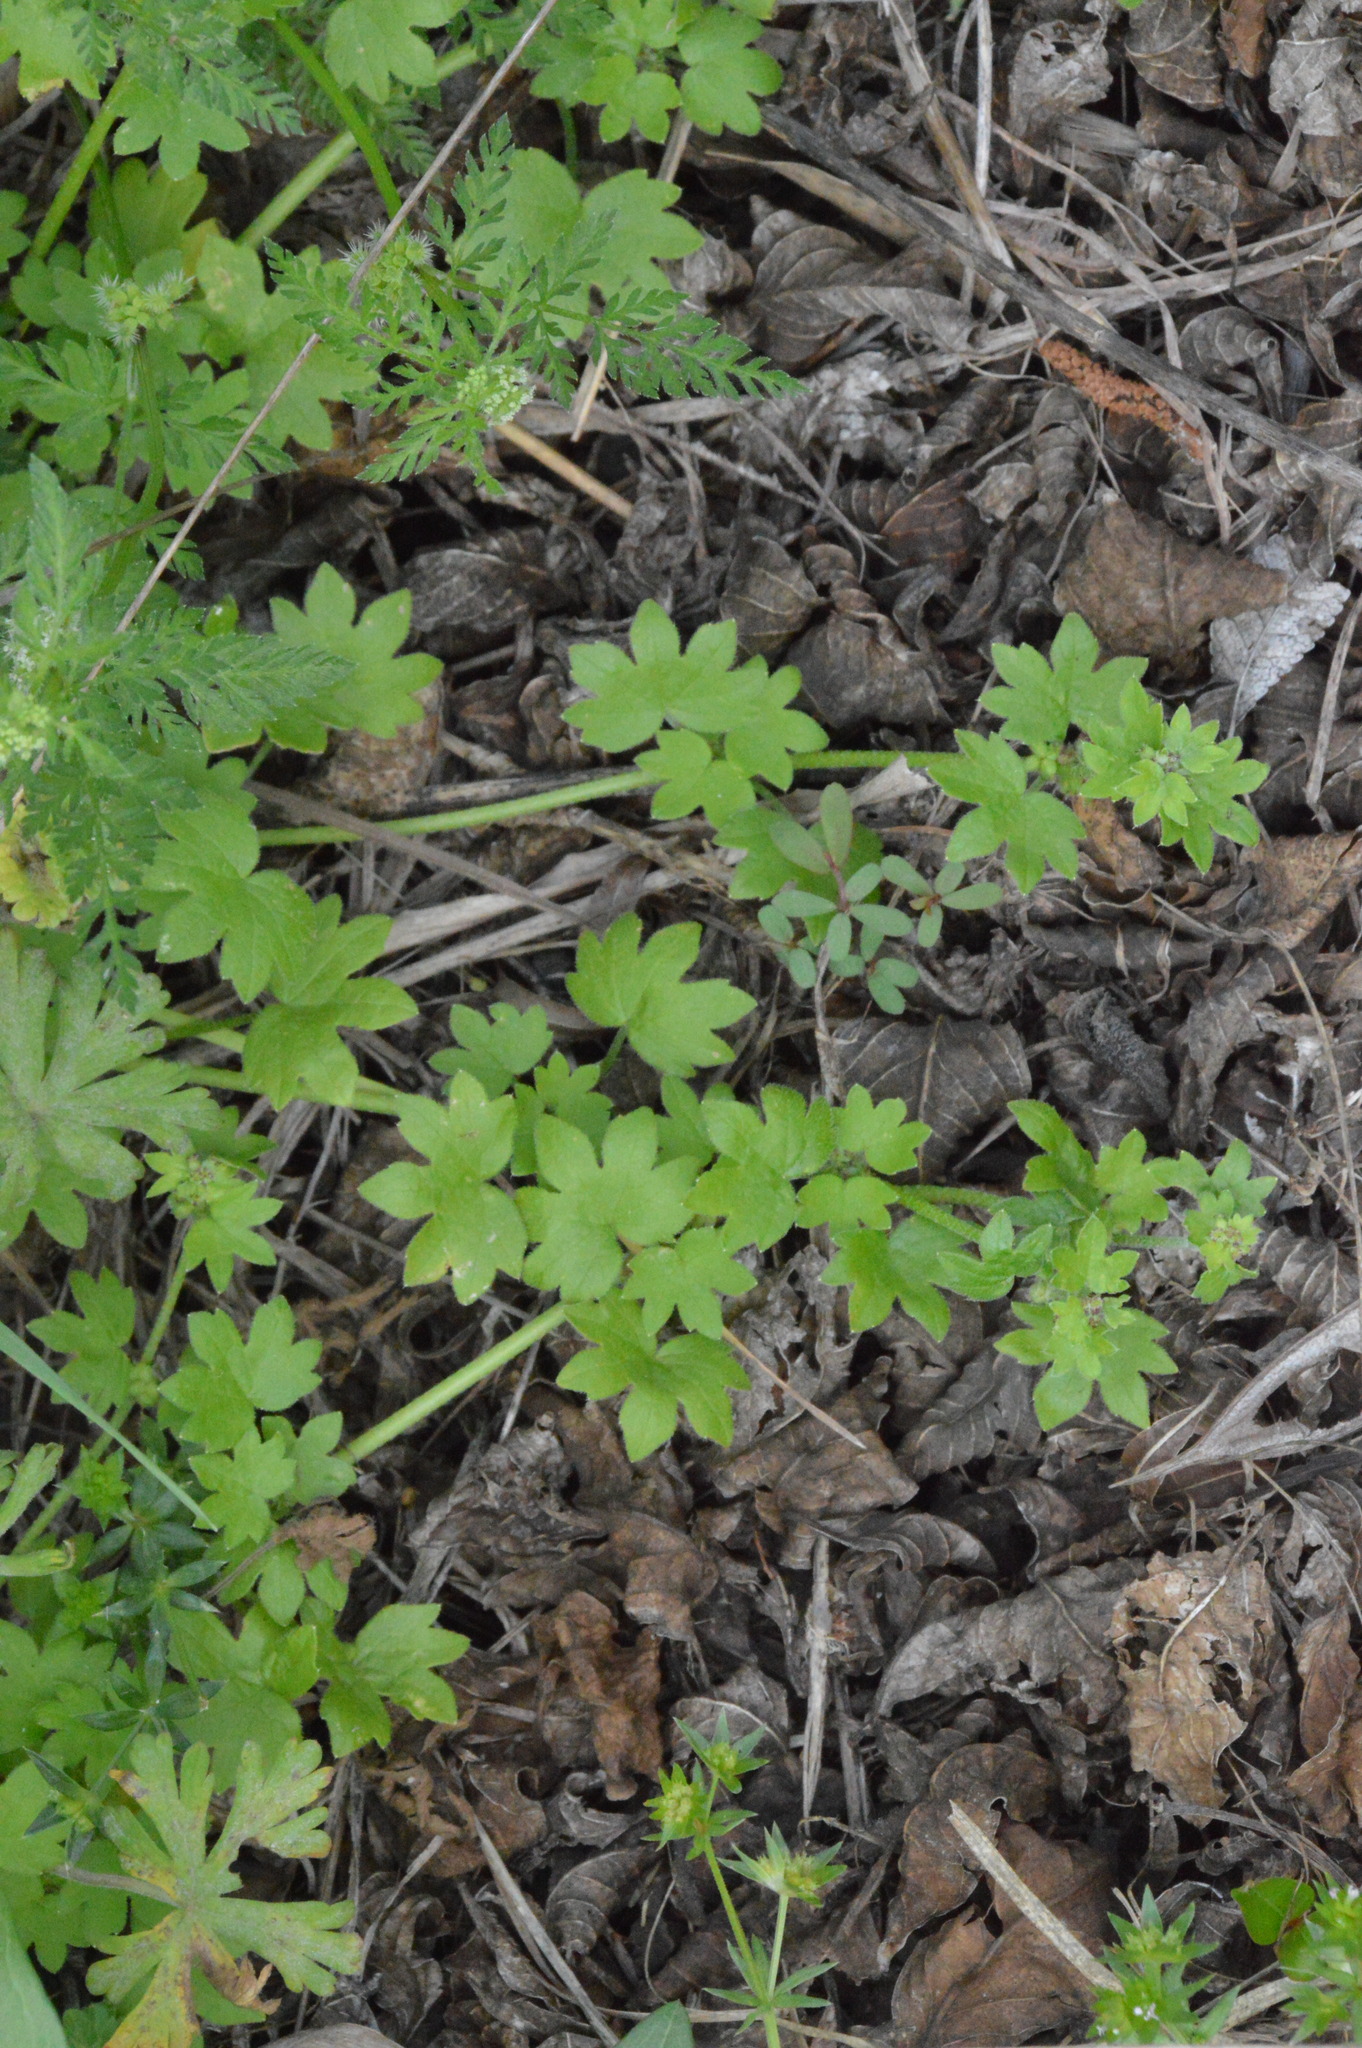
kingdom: Plantae
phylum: Tracheophyta
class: Magnoliopsida
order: Apiales
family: Apiaceae
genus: Bowlesia
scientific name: Bowlesia incana
